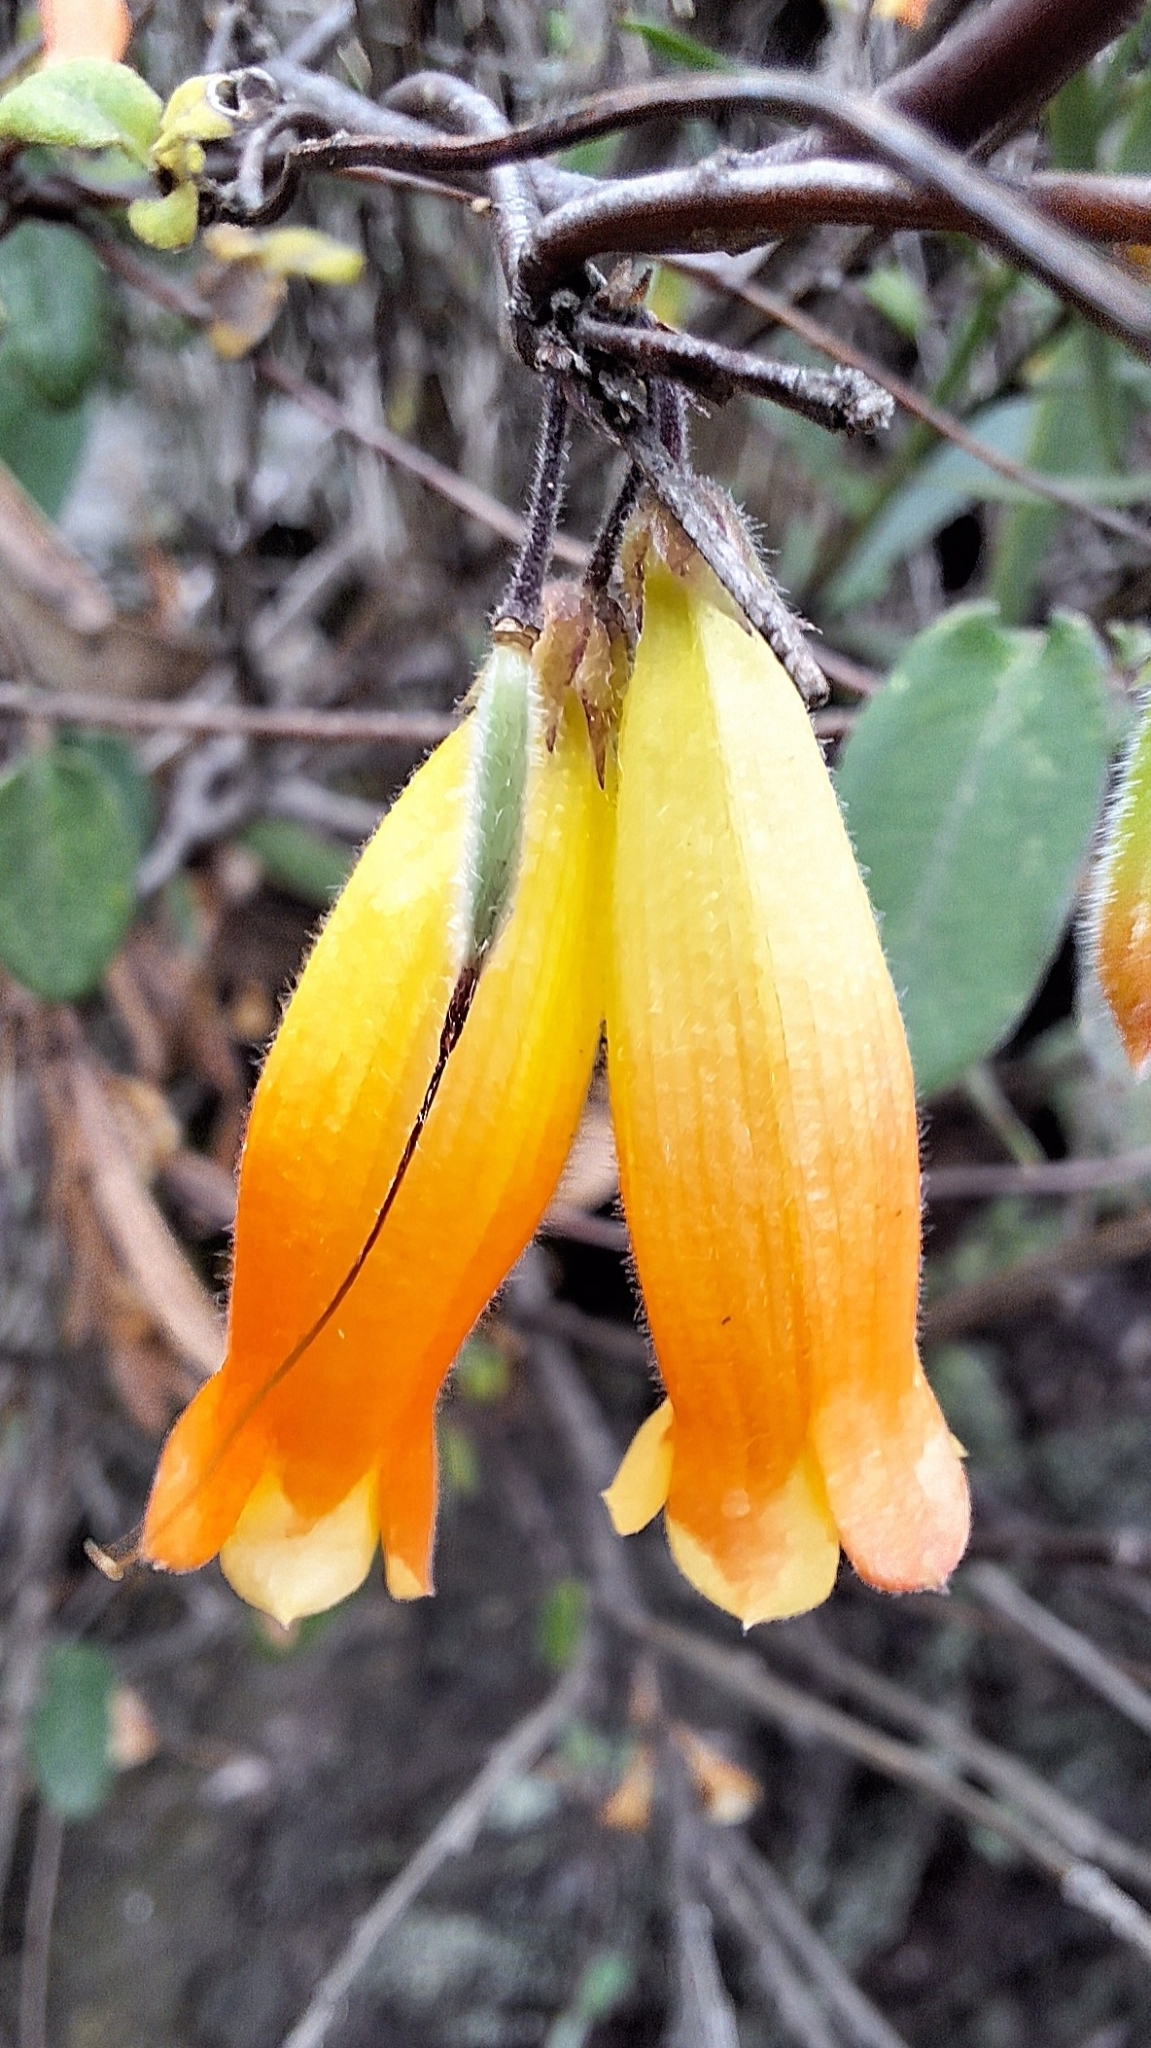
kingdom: Plantae
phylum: Tracheophyta
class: Magnoliopsida
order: Apiales
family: Pittosporaceae
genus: Marianthus
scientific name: Marianthus bignoniaceus
